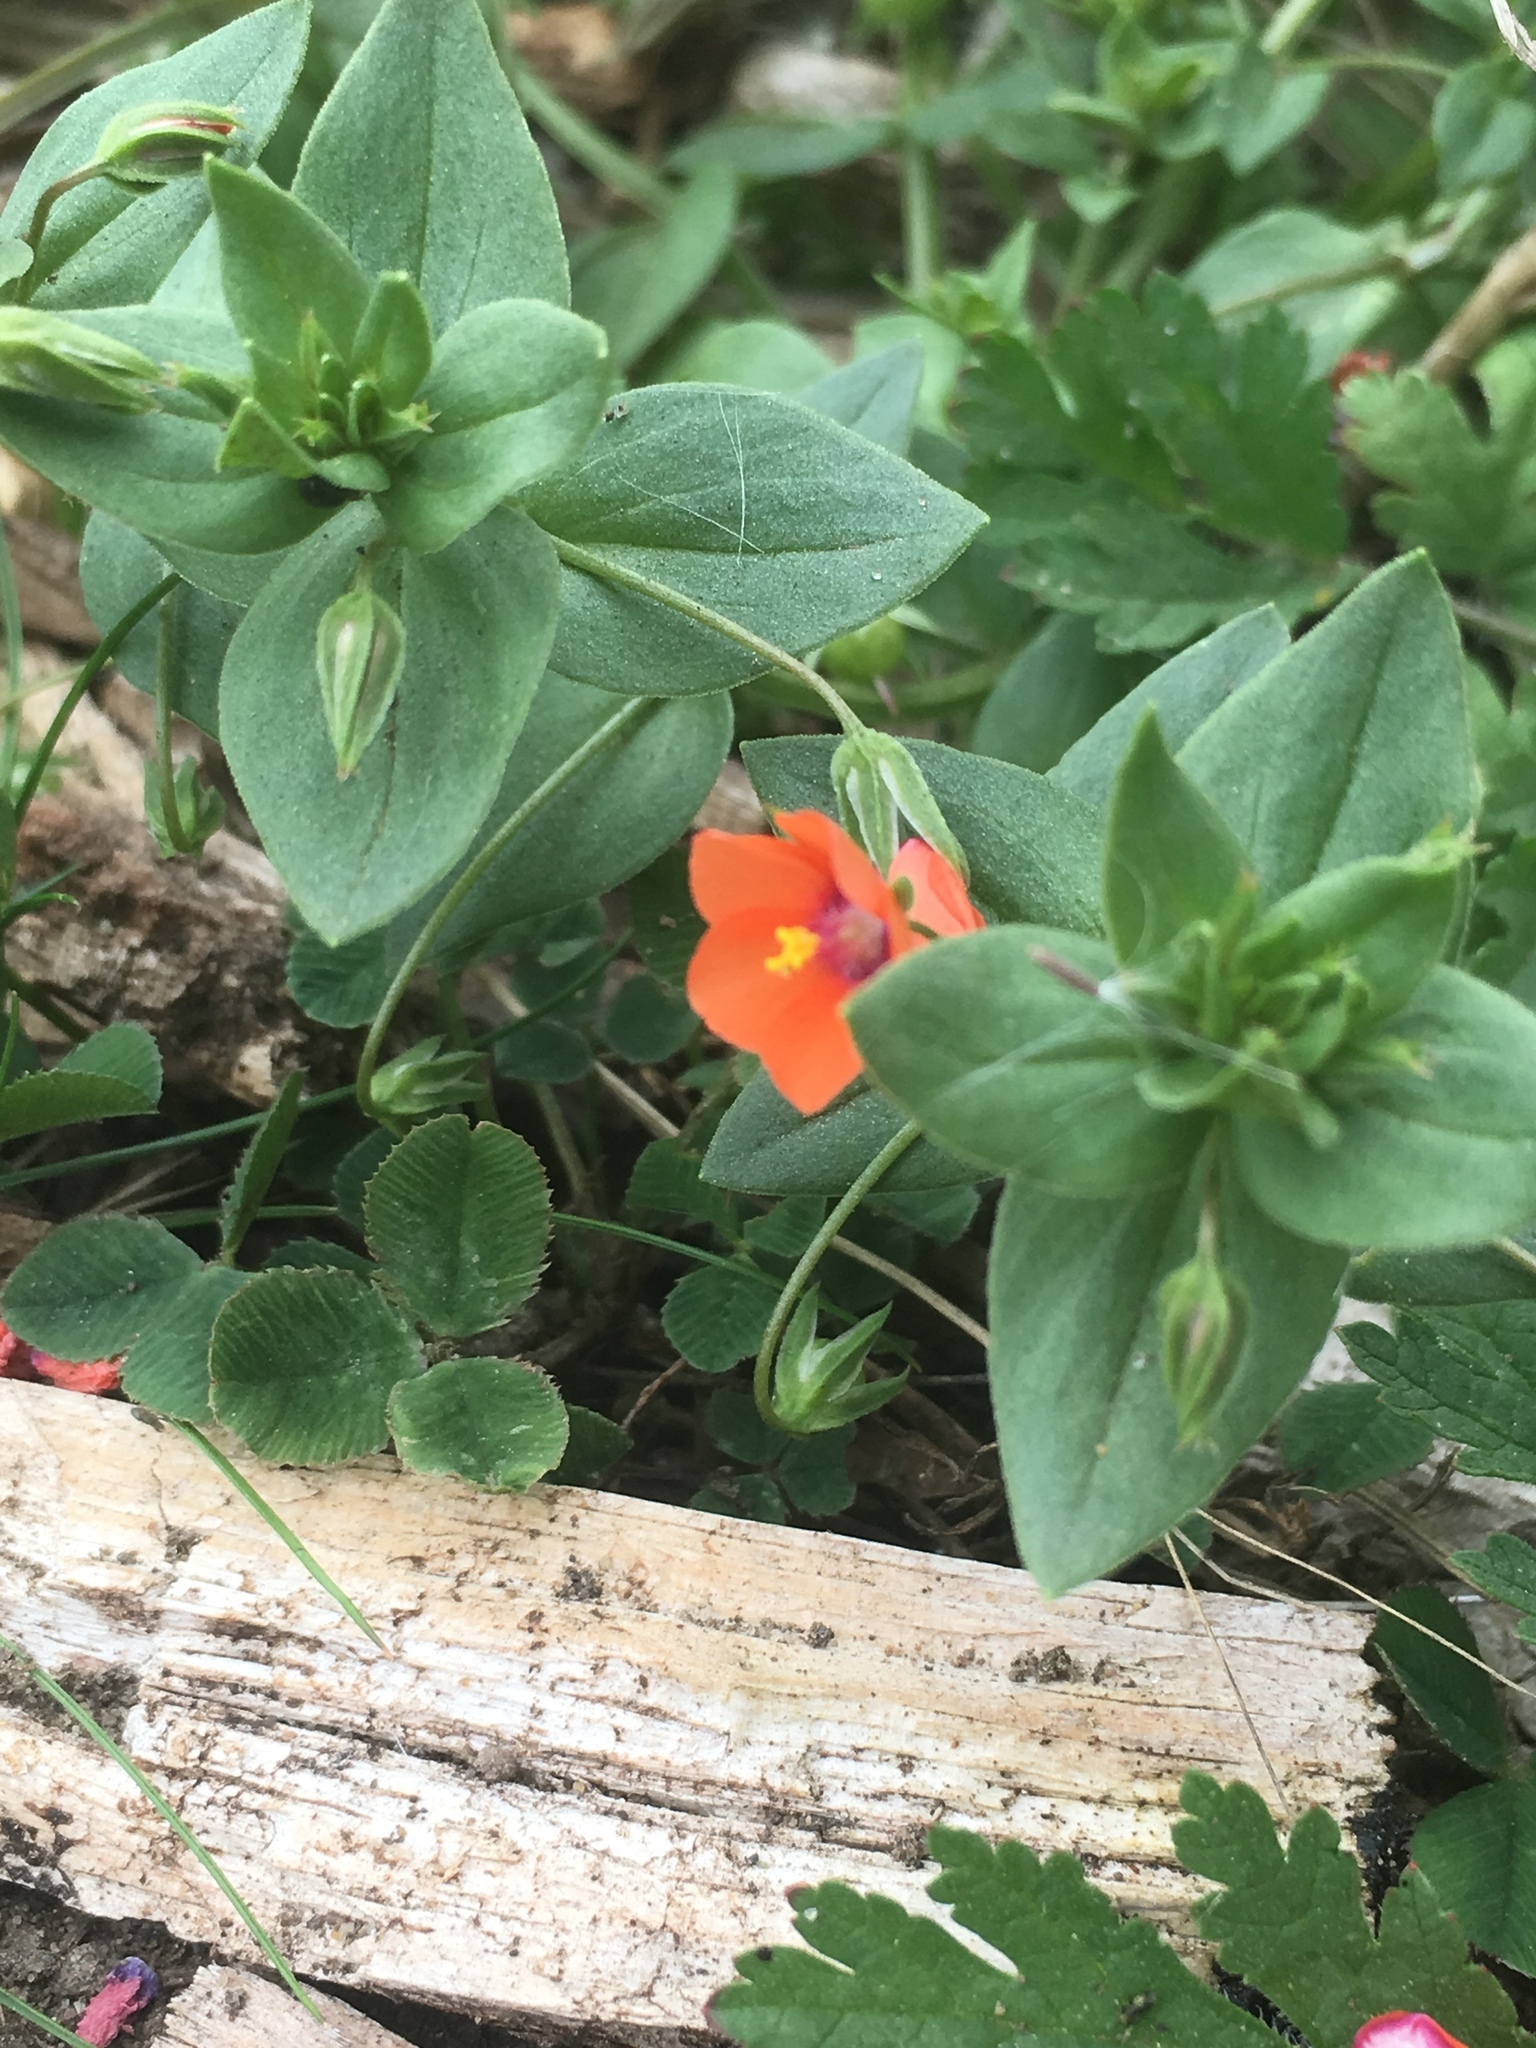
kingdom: Plantae
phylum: Tracheophyta
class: Magnoliopsida
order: Ericales
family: Primulaceae
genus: Lysimachia
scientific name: Lysimachia arvensis
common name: Scarlet pimpernel
